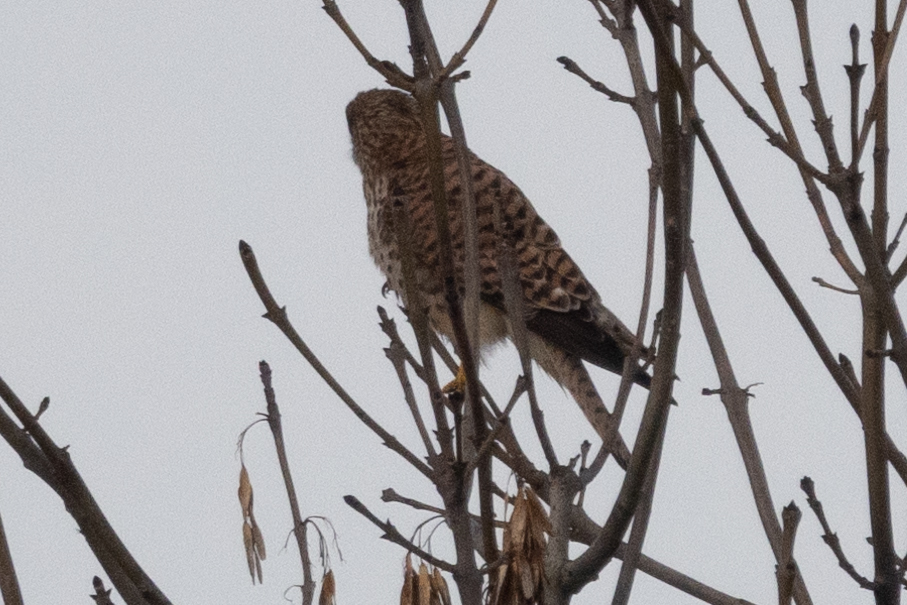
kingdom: Animalia
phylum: Chordata
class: Aves
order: Falconiformes
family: Falconidae
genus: Falco
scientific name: Falco tinnunculus
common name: Common kestrel
